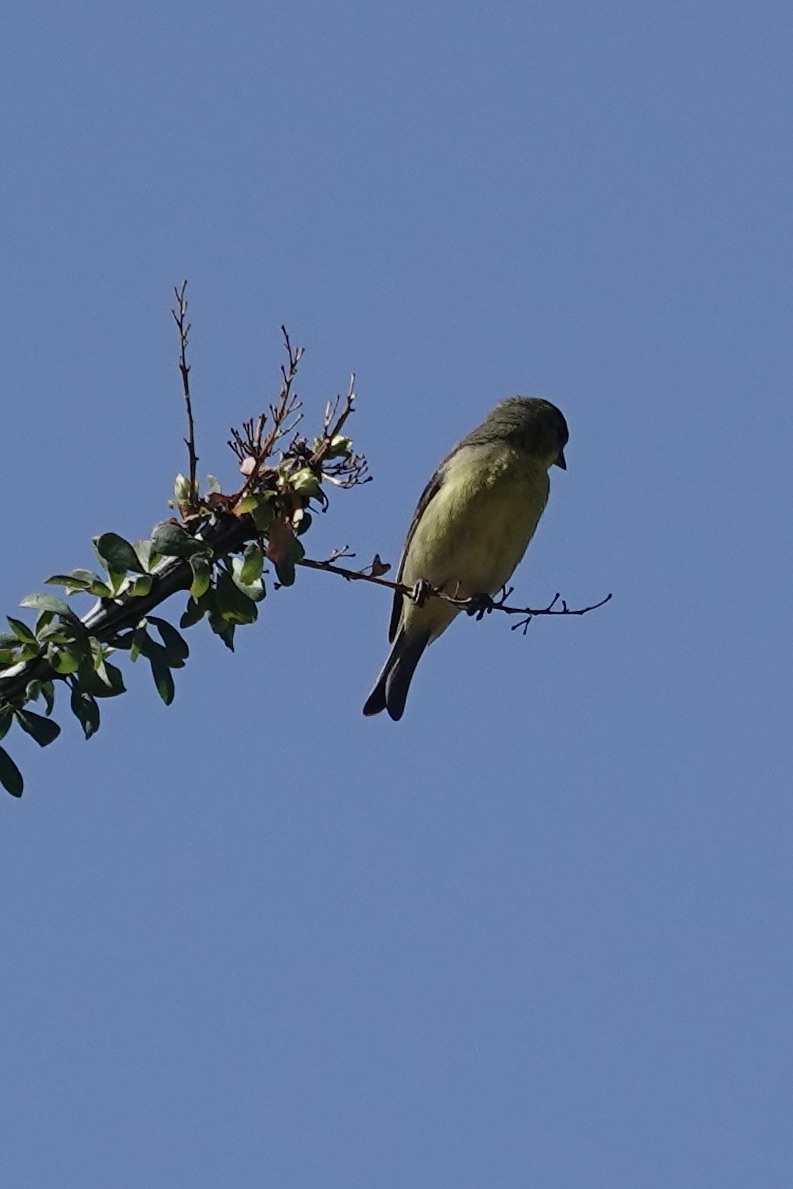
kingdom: Animalia
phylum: Chordata
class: Aves
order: Passeriformes
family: Fringillidae
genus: Spinus
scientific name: Spinus psaltria
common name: Lesser goldfinch
